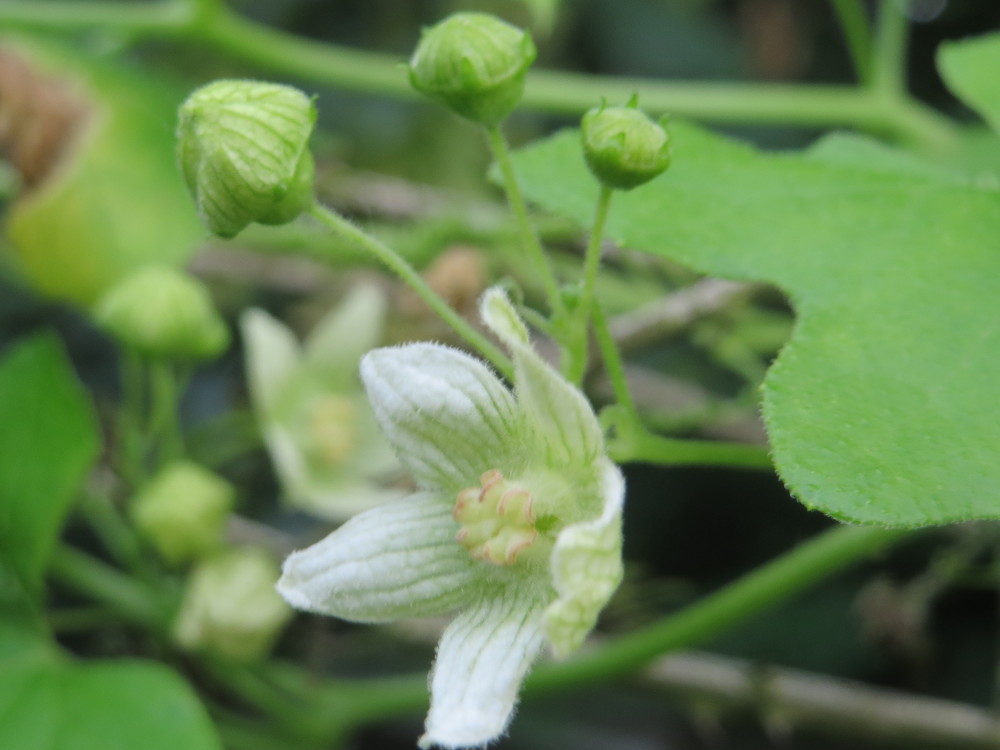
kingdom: Plantae
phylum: Tracheophyta
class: Magnoliopsida
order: Cucurbitales
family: Cucurbitaceae
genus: Bryonia
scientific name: Bryonia dioica
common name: White bryony
